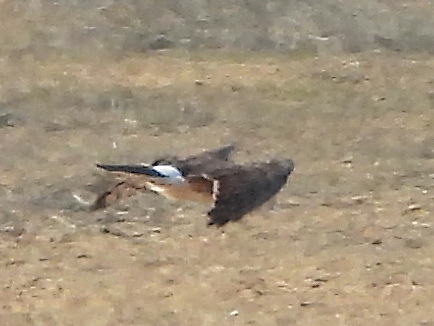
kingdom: Animalia
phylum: Chordata
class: Aves
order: Accipitriformes
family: Accipitridae
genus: Circus
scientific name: Circus cyaneus
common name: Hen harrier
